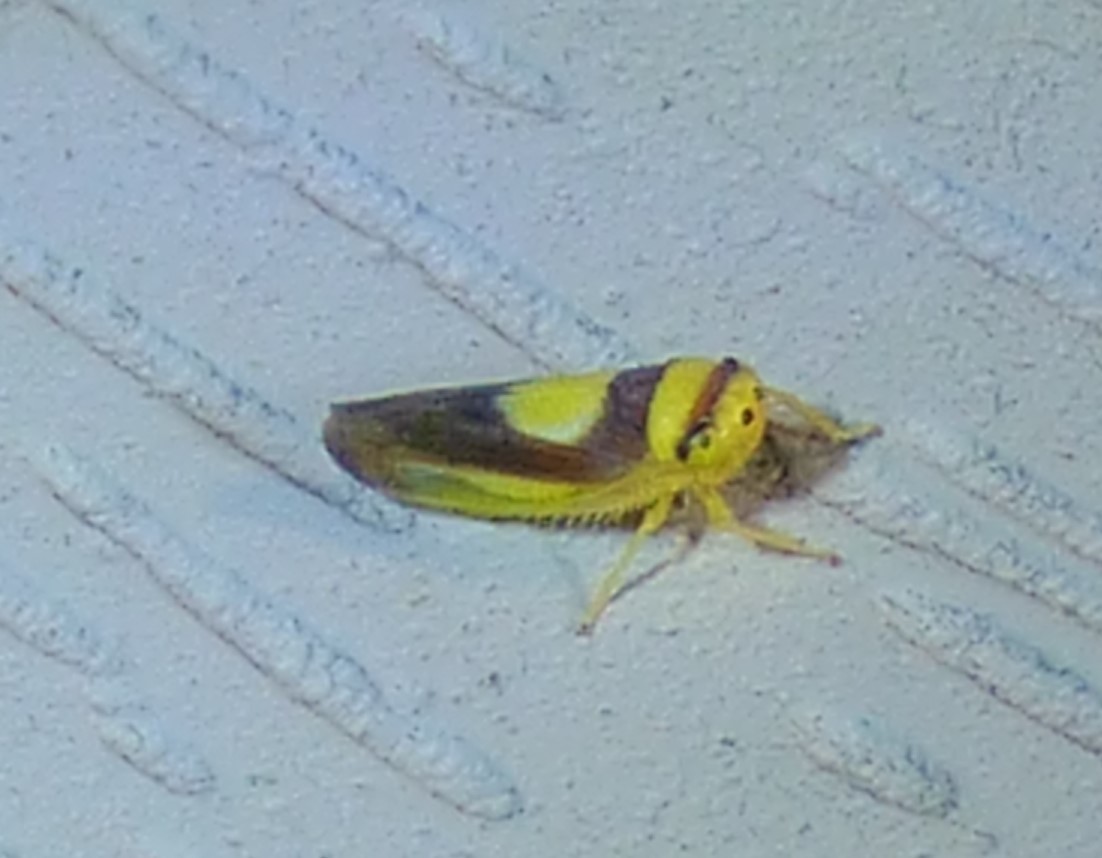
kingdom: Animalia
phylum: Arthropoda
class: Insecta
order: Hemiptera
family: Cicadellidae
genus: Colladonus
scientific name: Colladonus clitellarius
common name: The saddleback leafhopper
